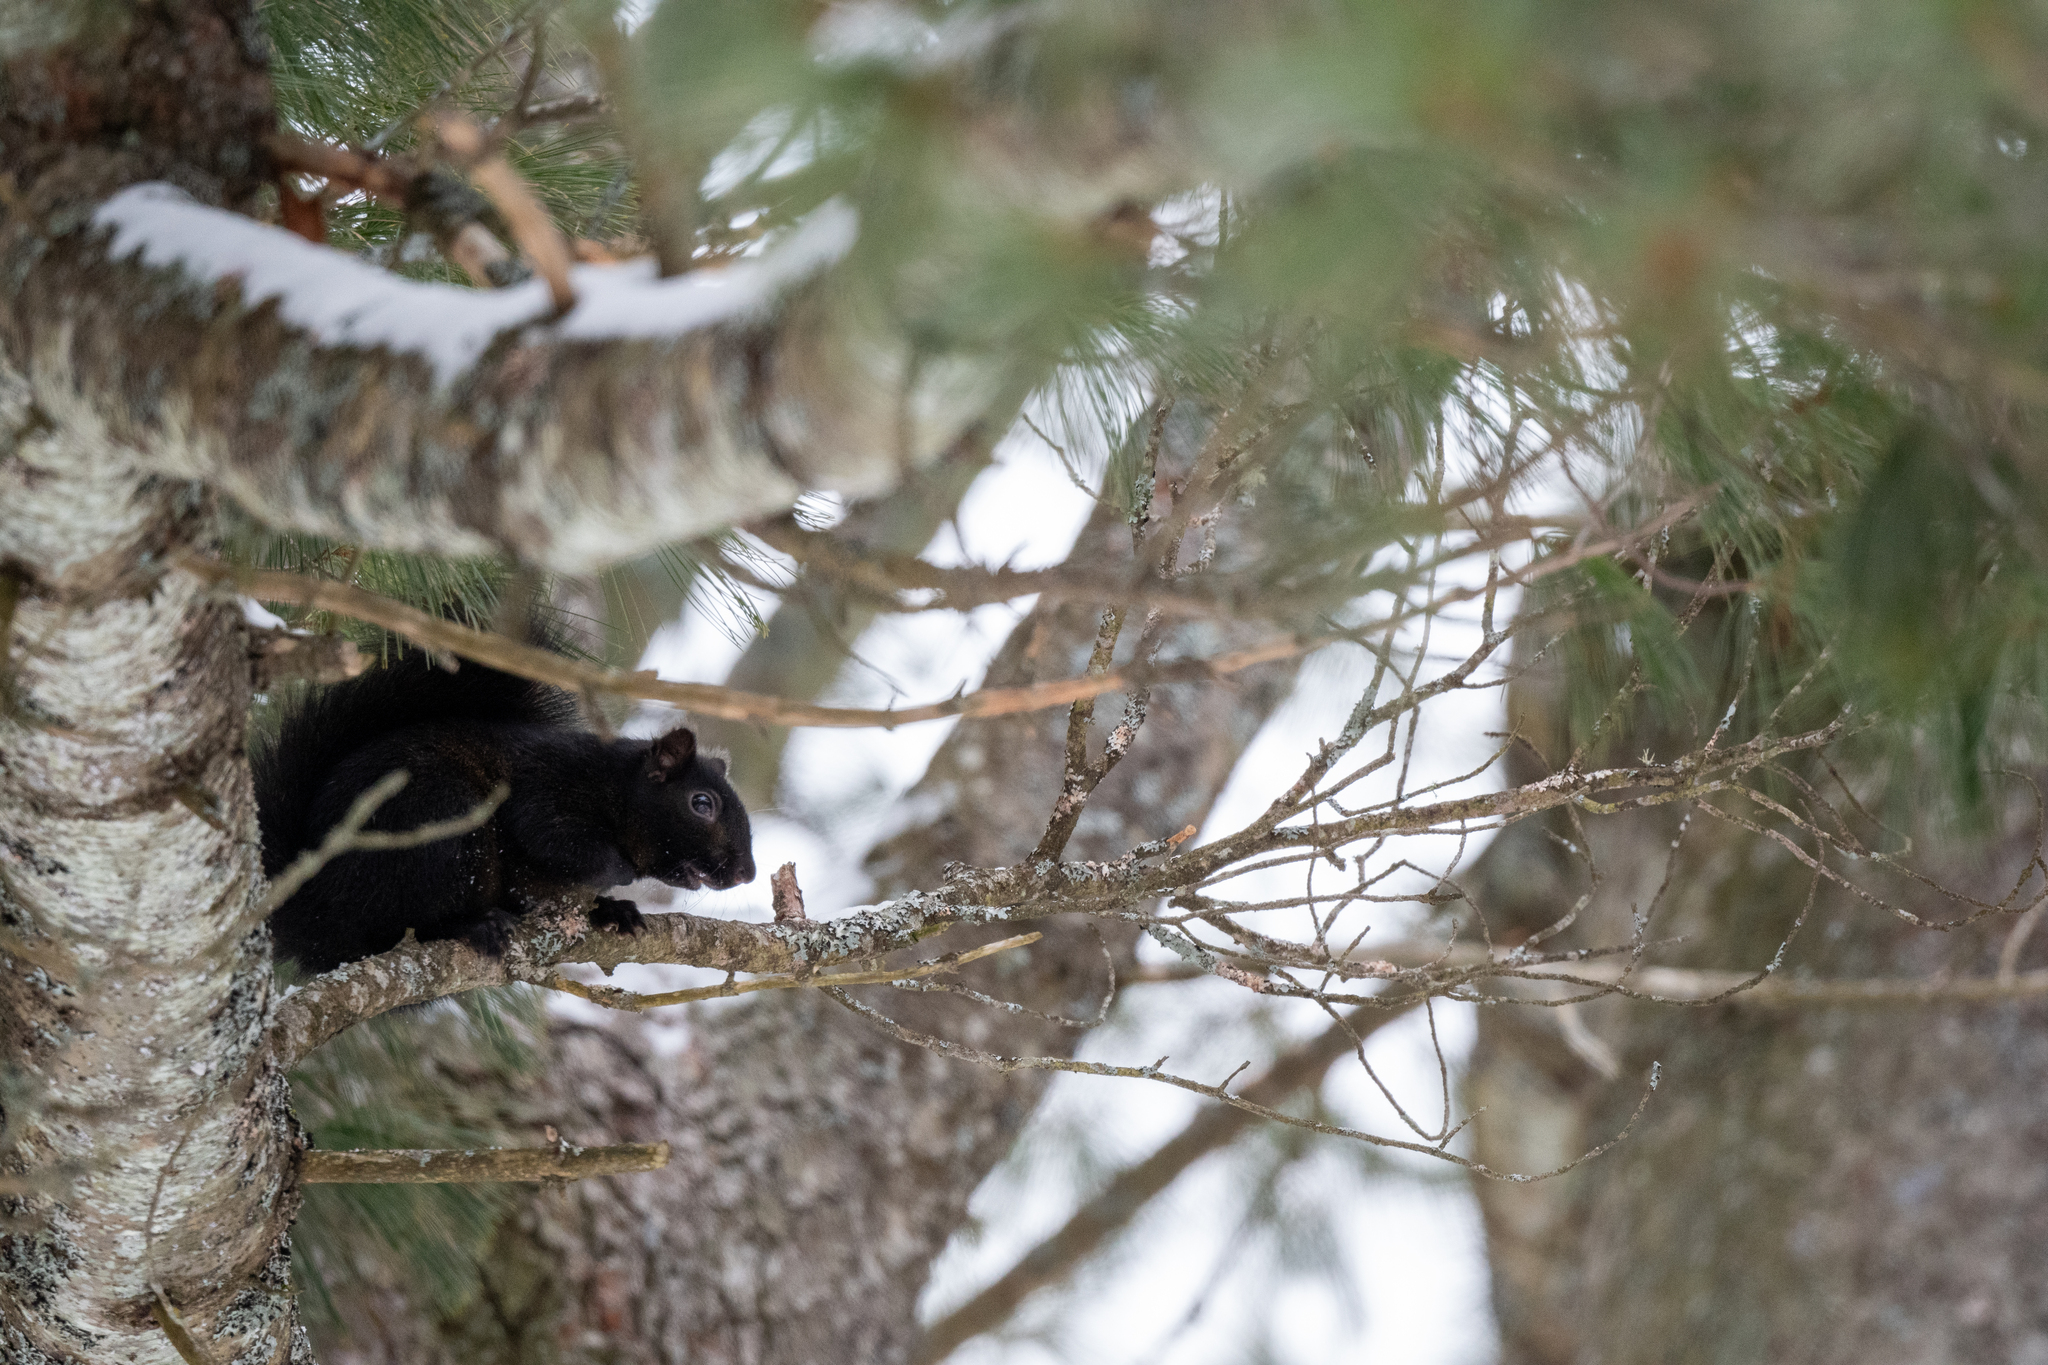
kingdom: Animalia
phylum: Chordata
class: Mammalia
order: Rodentia
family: Sciuridae
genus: Sciurus
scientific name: Sciurus carolinensis
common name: Eastern gray squirrel
